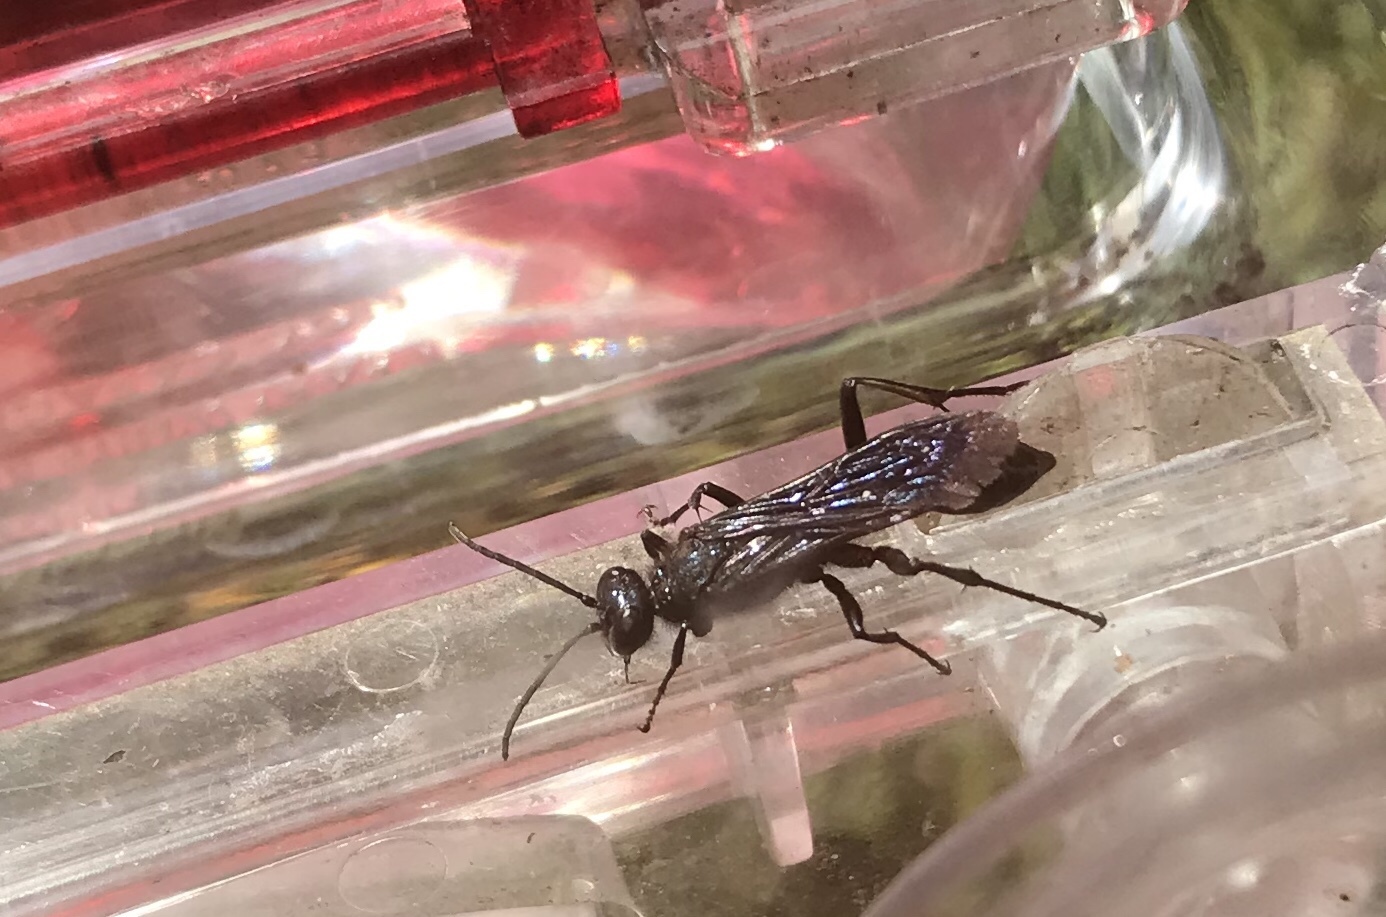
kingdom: Animalia
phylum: Arthropoda
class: Insecta
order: Hymenoptera
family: Sphecidae
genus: Chalybion
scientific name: Chalybion californicum
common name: Mud dauber
